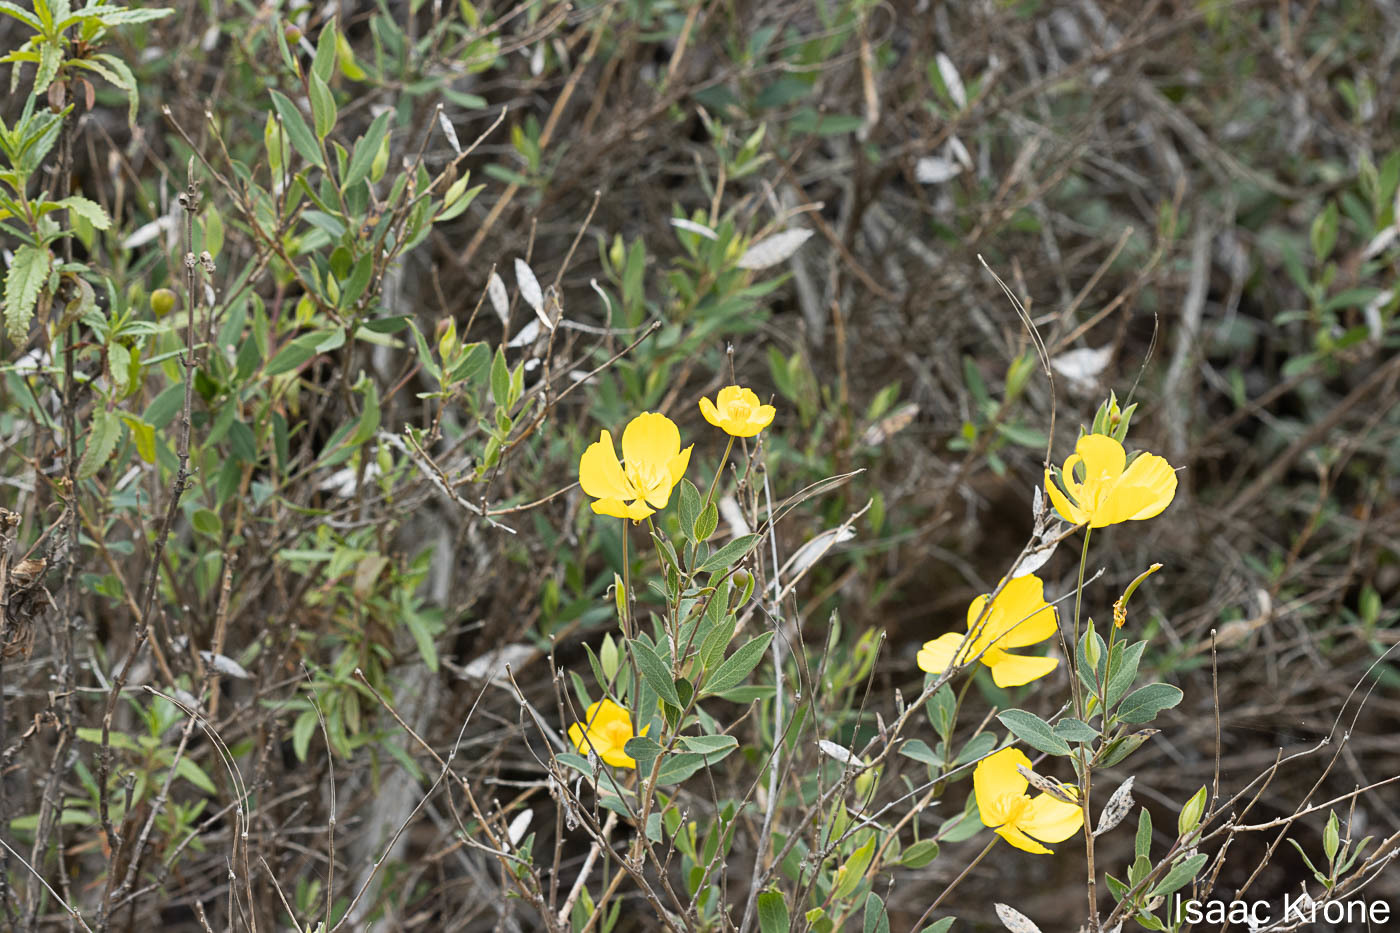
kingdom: Plantae
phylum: Tracheophyta
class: Magnoliopsida
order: Ranunculales
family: Papaveraceae
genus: Dendromecon
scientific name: Dendromecon rigida
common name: Tree poppy
